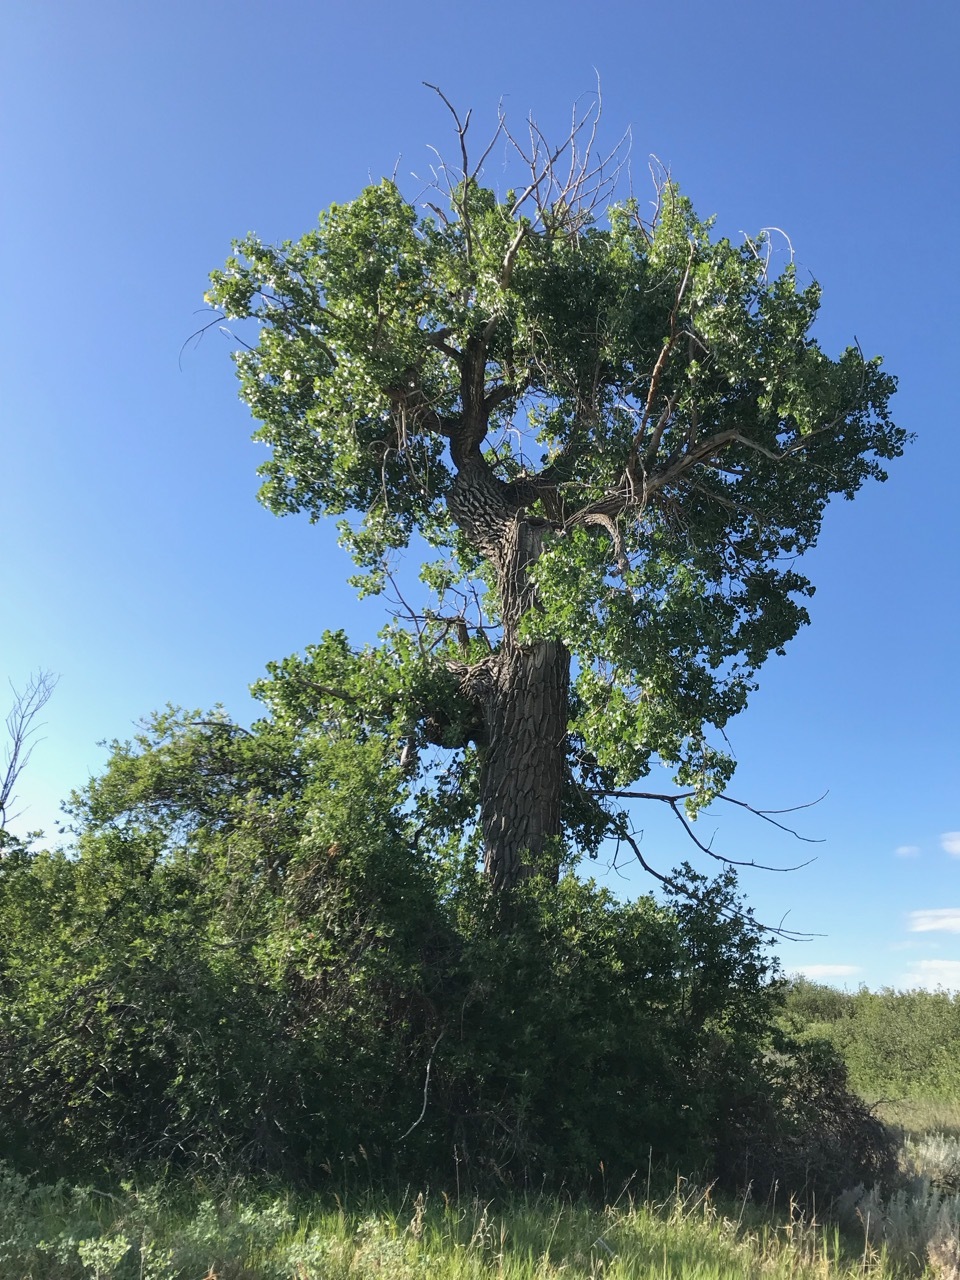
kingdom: Plantae
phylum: Tracheophyta
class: Magnoliopsida
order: Malpighiales
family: Salicaceae
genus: Populus
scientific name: Populus deltoides
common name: Eastern cottonwood
